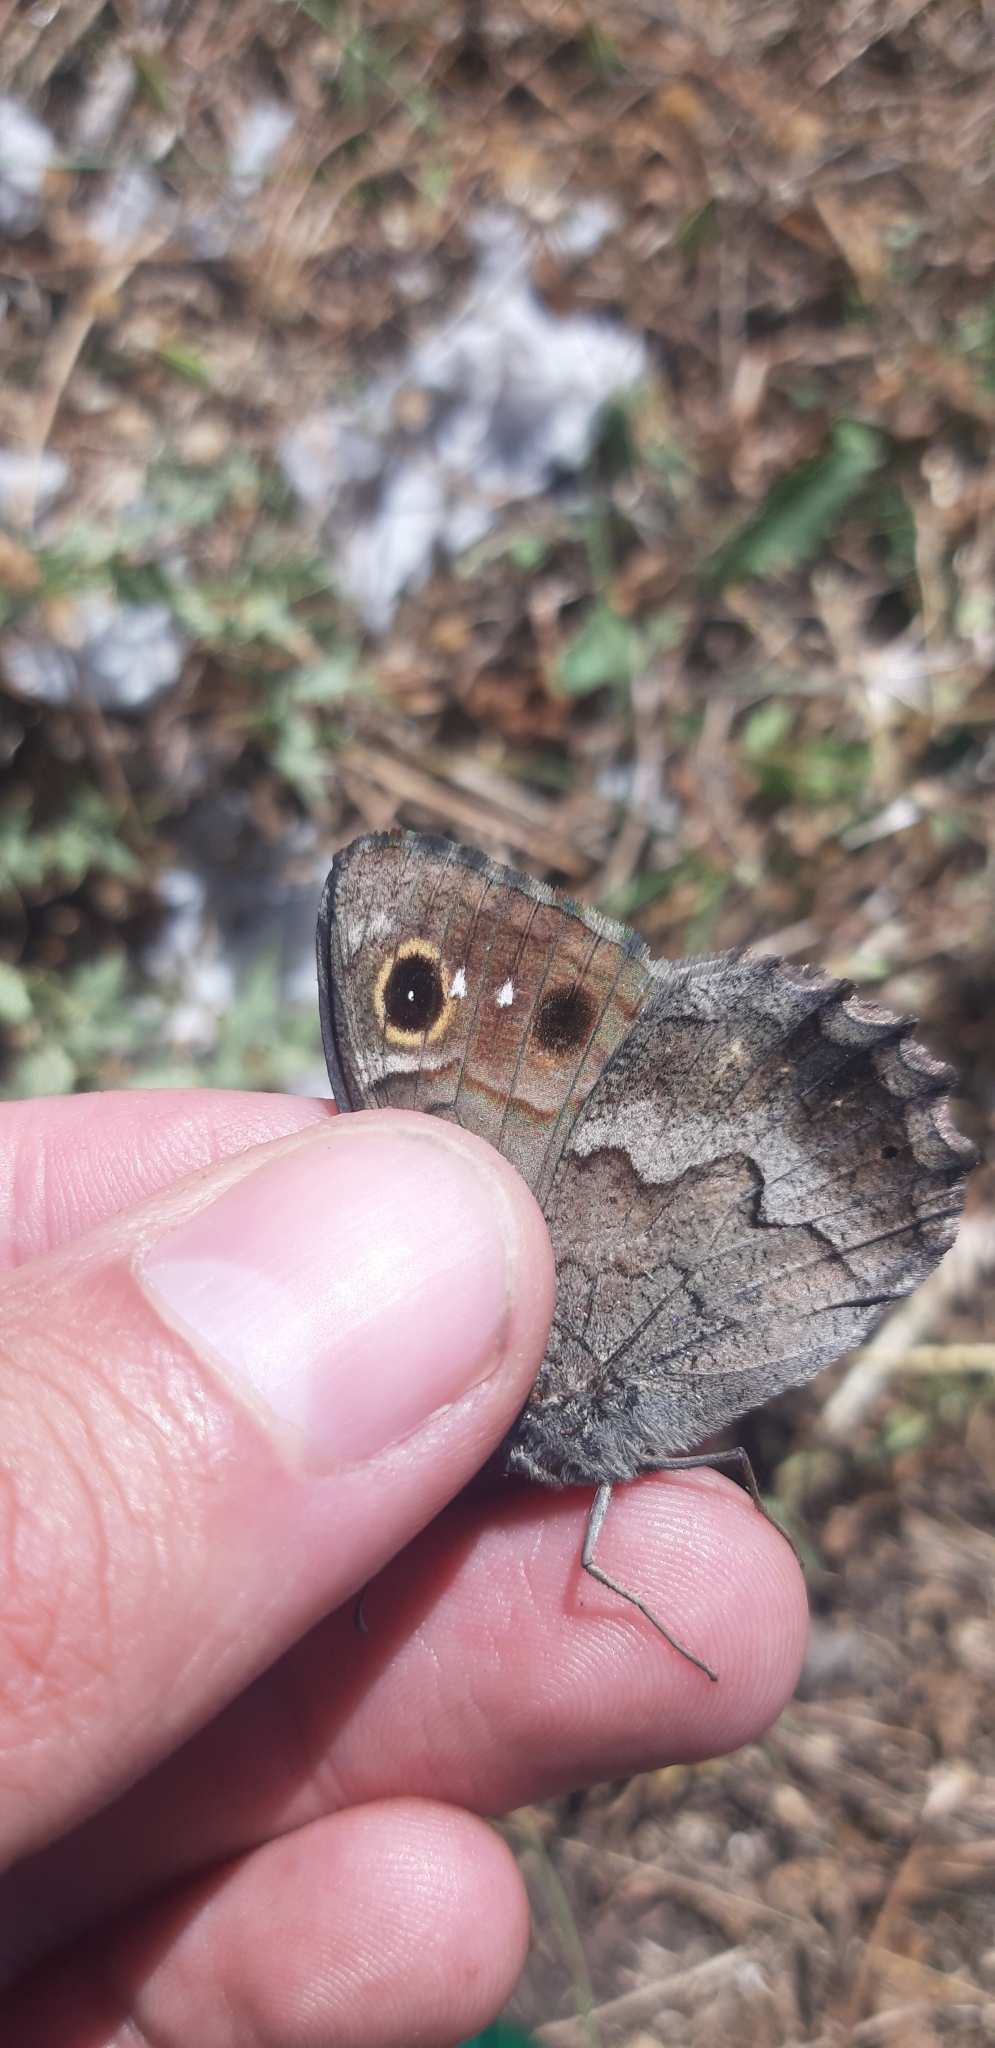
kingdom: Animalia
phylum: Arthropoda
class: Insecta
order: Lepidoptera
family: Nymphalidae
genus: Hipparchia
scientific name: Hipparchia statilinus
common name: Tree grayling
